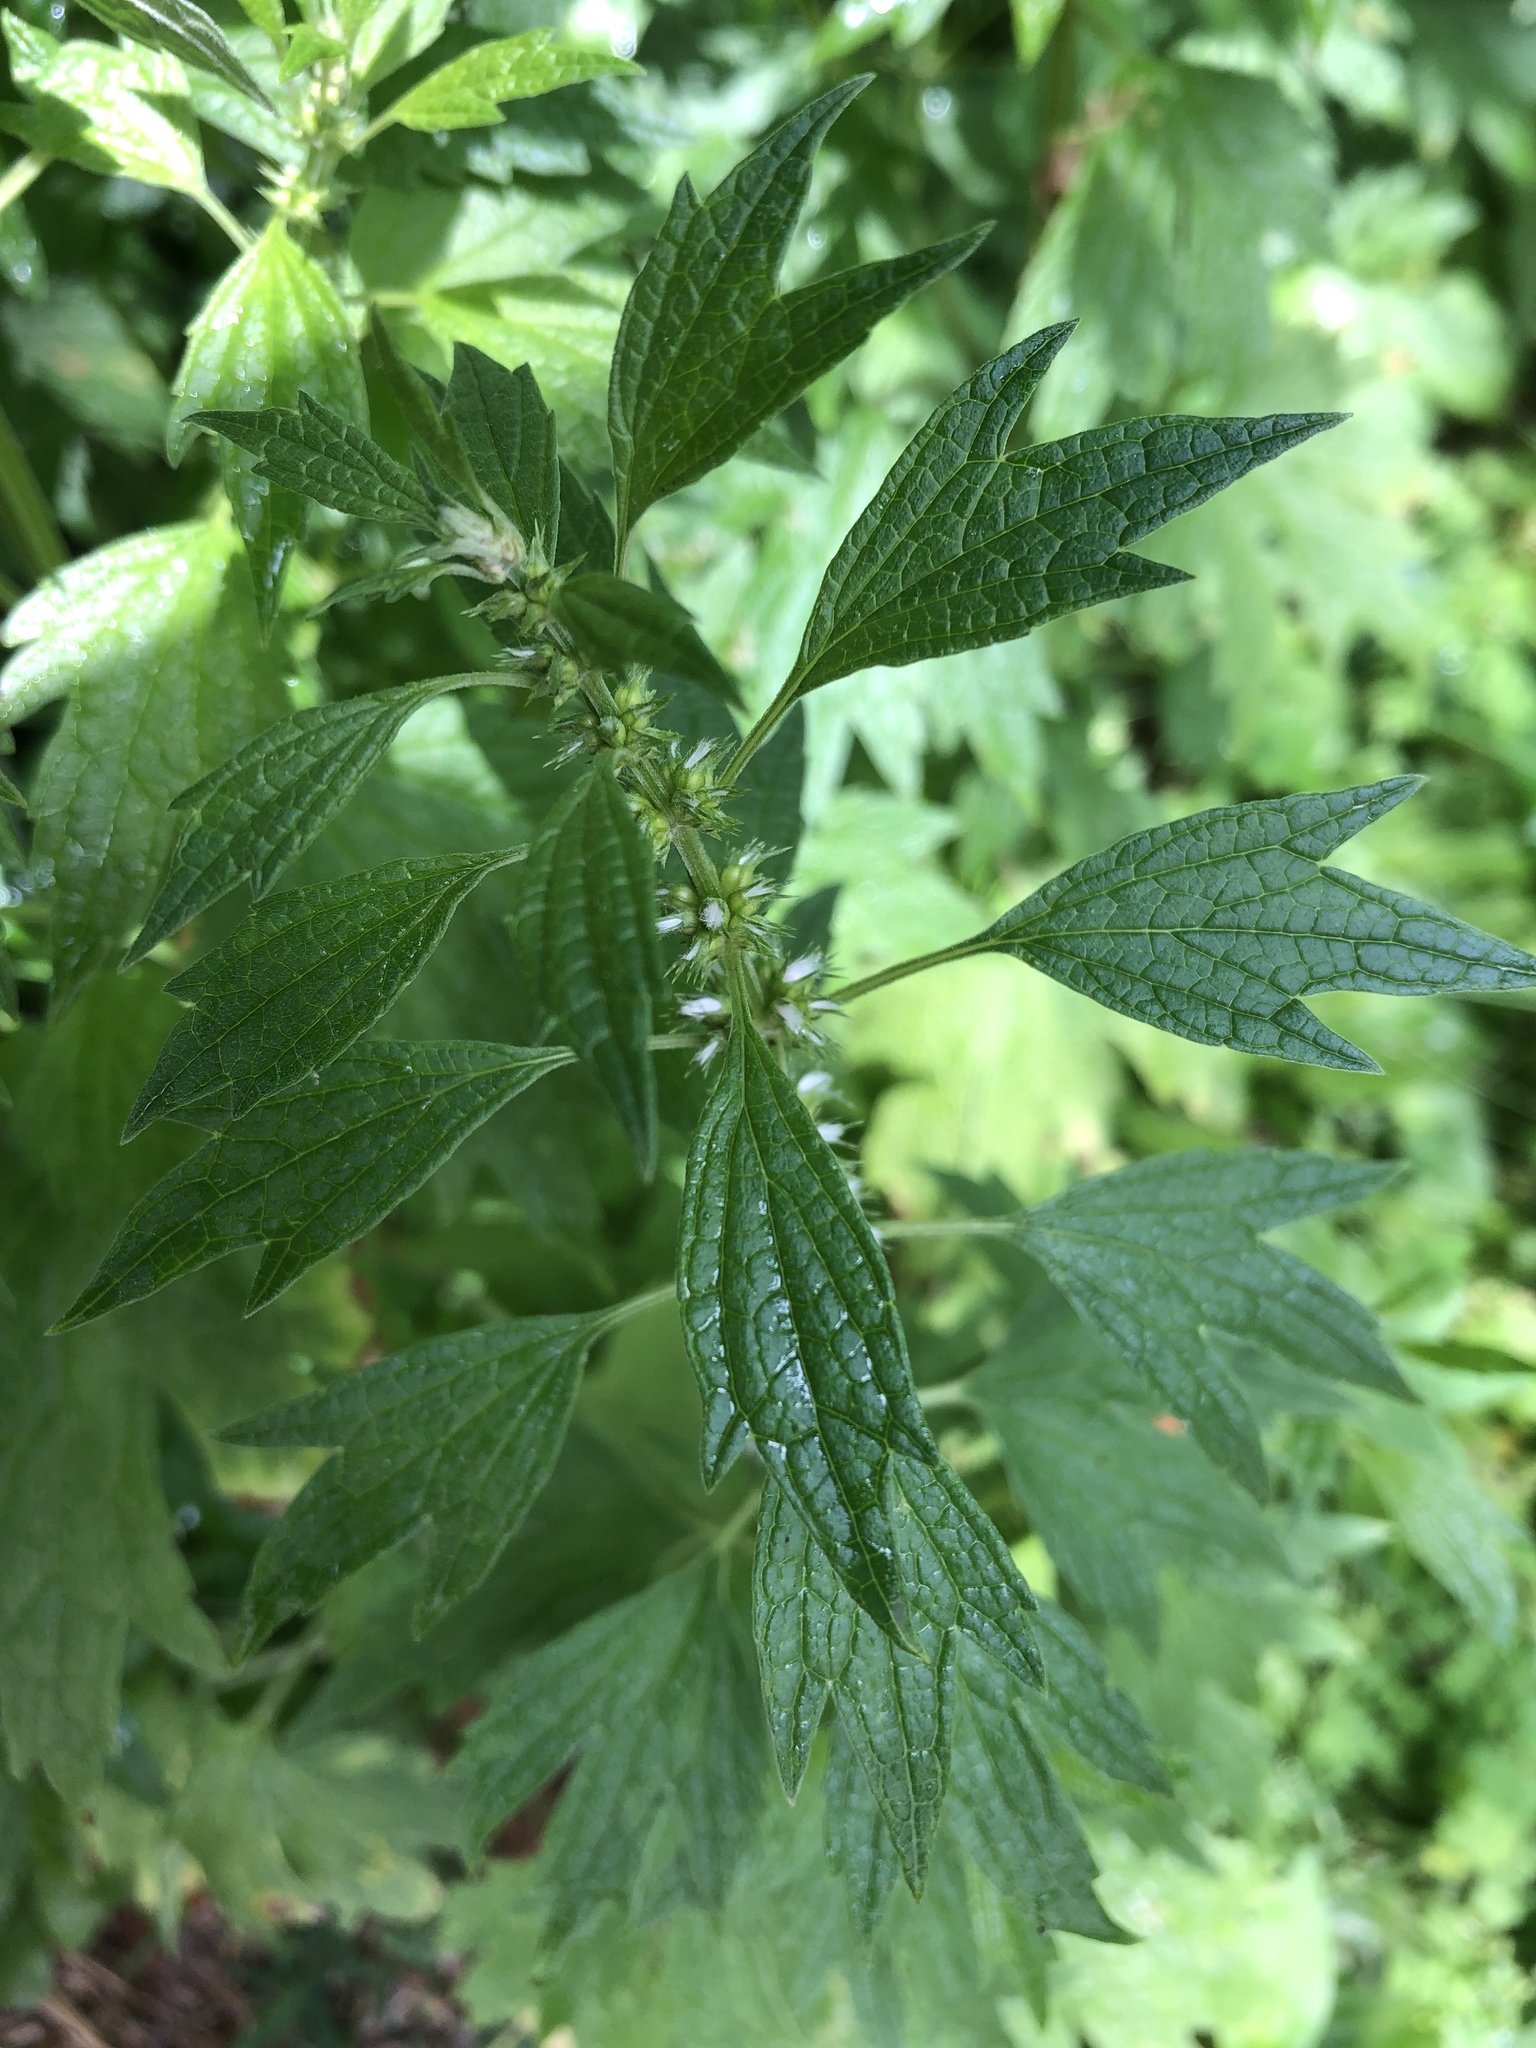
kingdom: Plantae
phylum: Tracheophyta
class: Magnoliopsida
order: Lamiales
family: Lamiaceae
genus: Leonurus
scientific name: Leonurus cardiaca
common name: Motherwort
